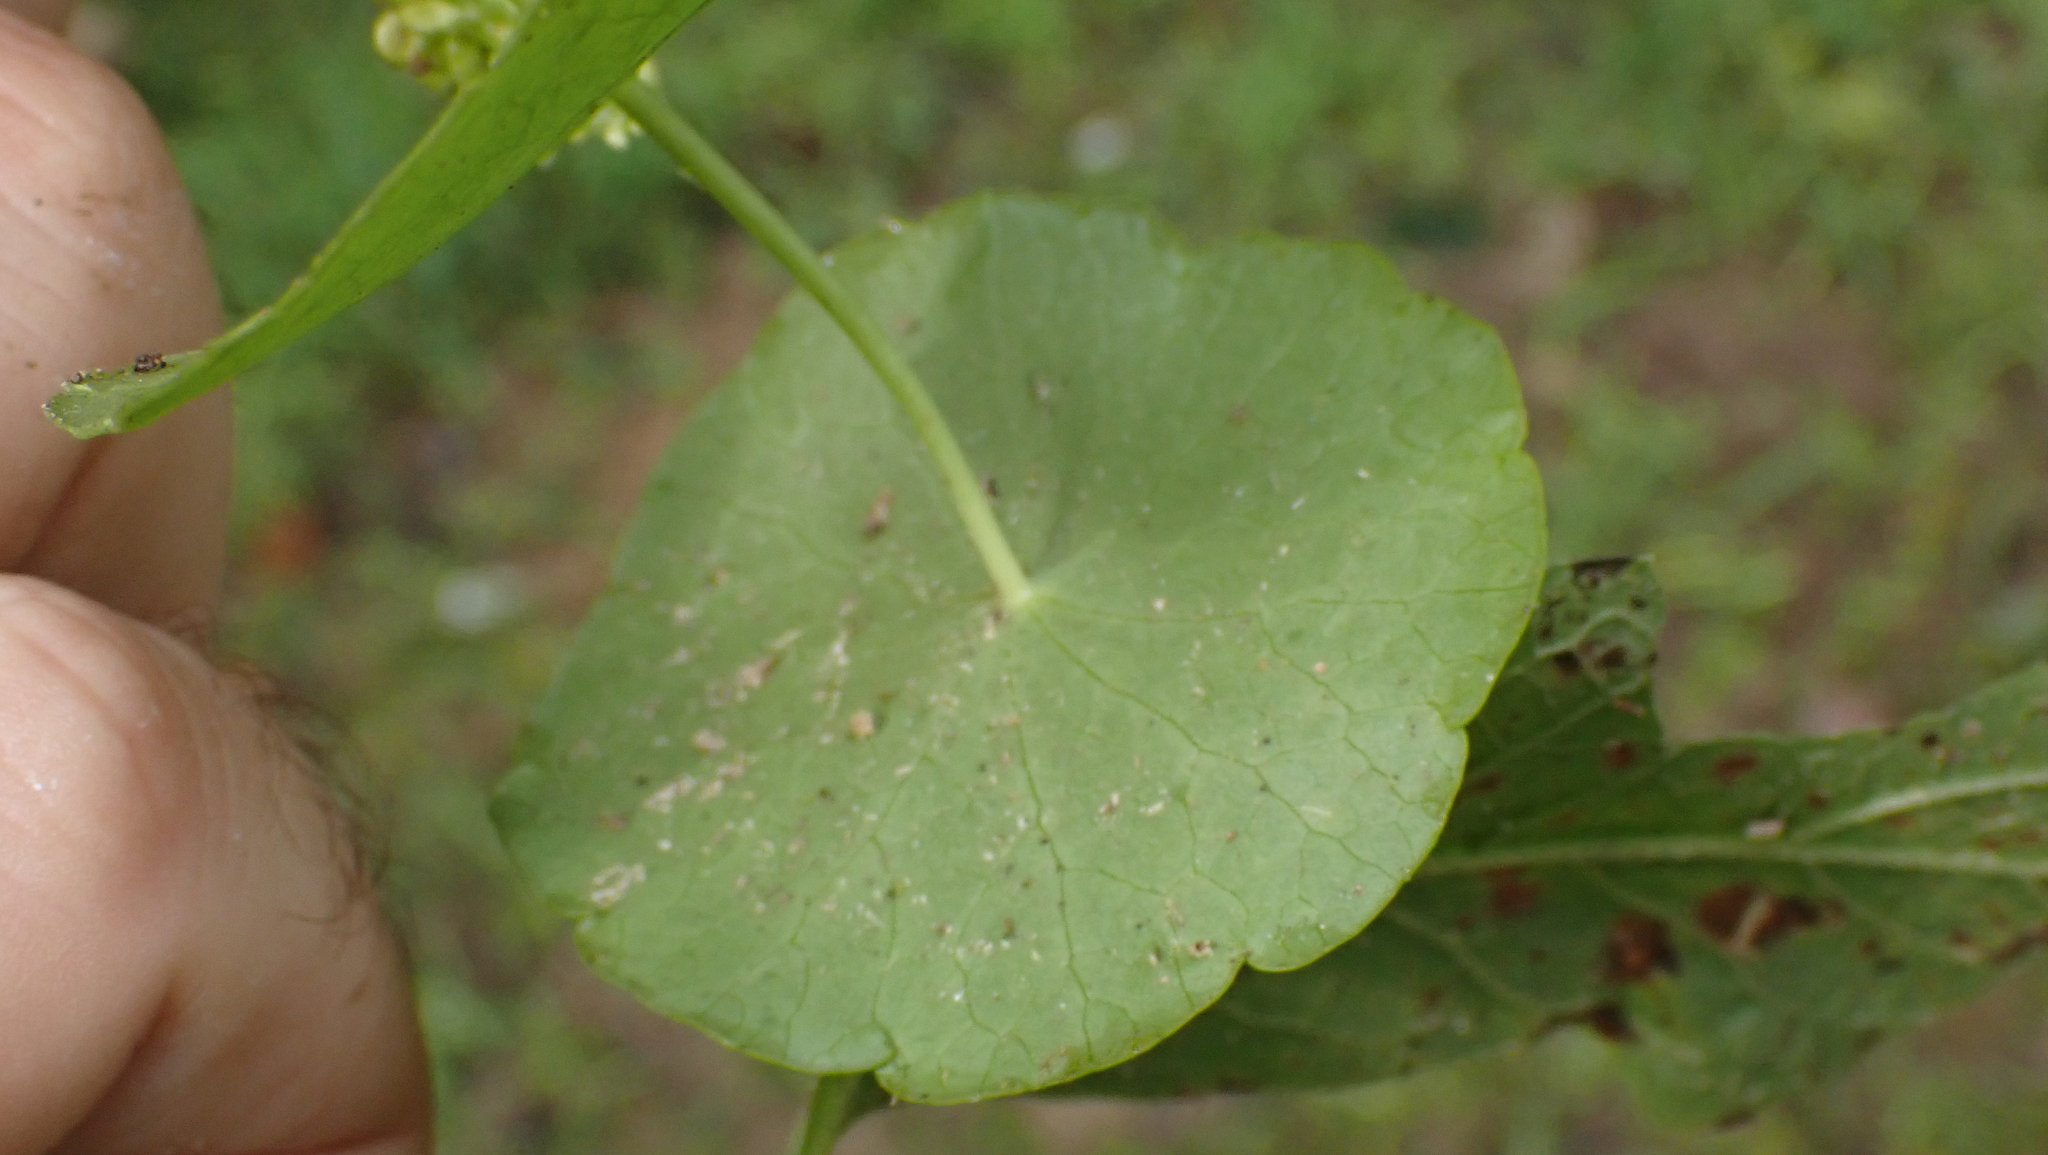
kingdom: Plantae
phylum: Tracheophyta
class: Magnoliopsida
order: Apiales
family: Araliaceae
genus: Hydrocotyle
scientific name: Hydrocotyle verticillata
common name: Whorled marshpennywort
